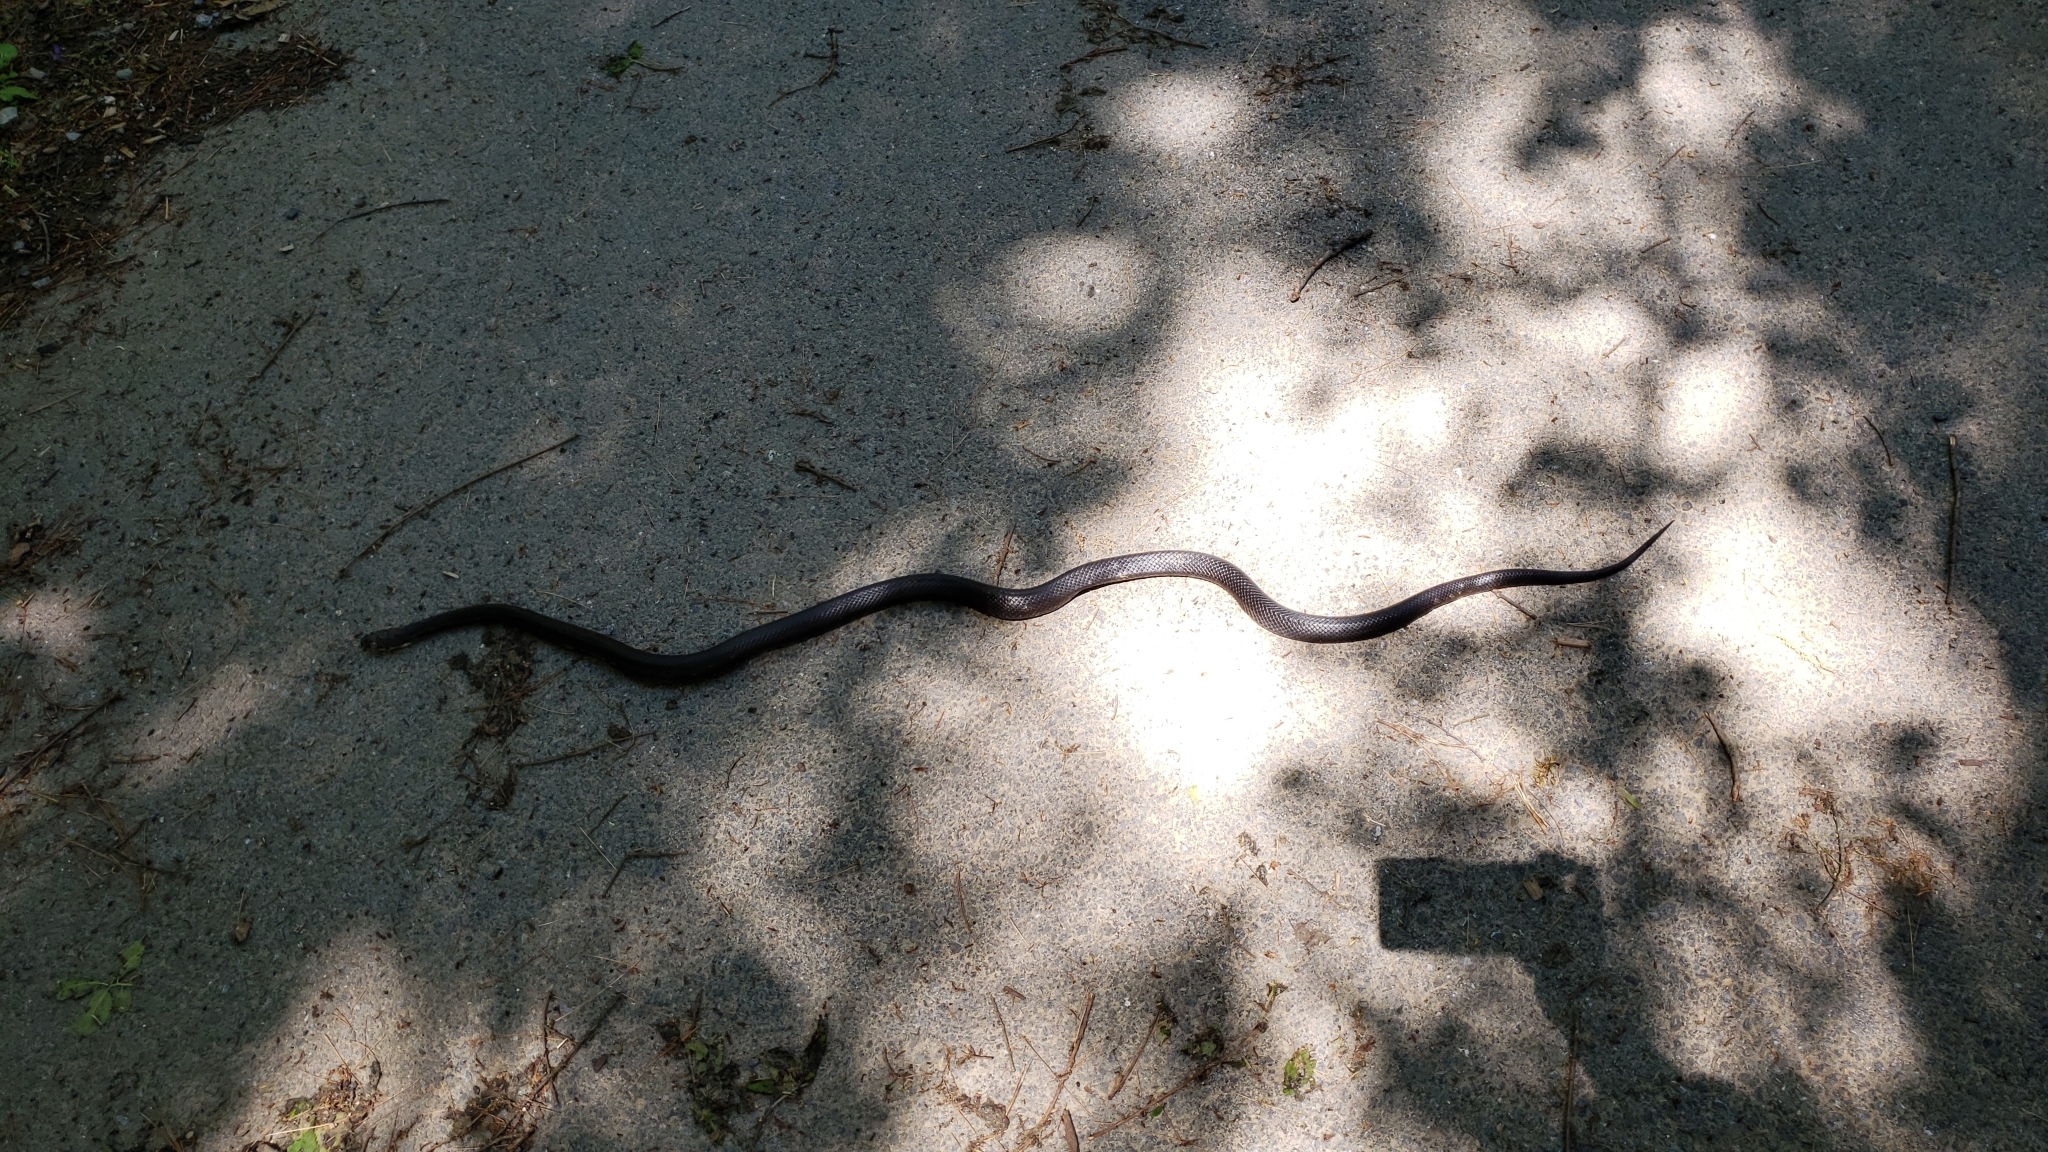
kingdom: Animalia
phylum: Chordata
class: Squamata
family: Colubridae
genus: Pantherophis
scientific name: Pantherophis alleghaniensis
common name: Eastern rat snake
